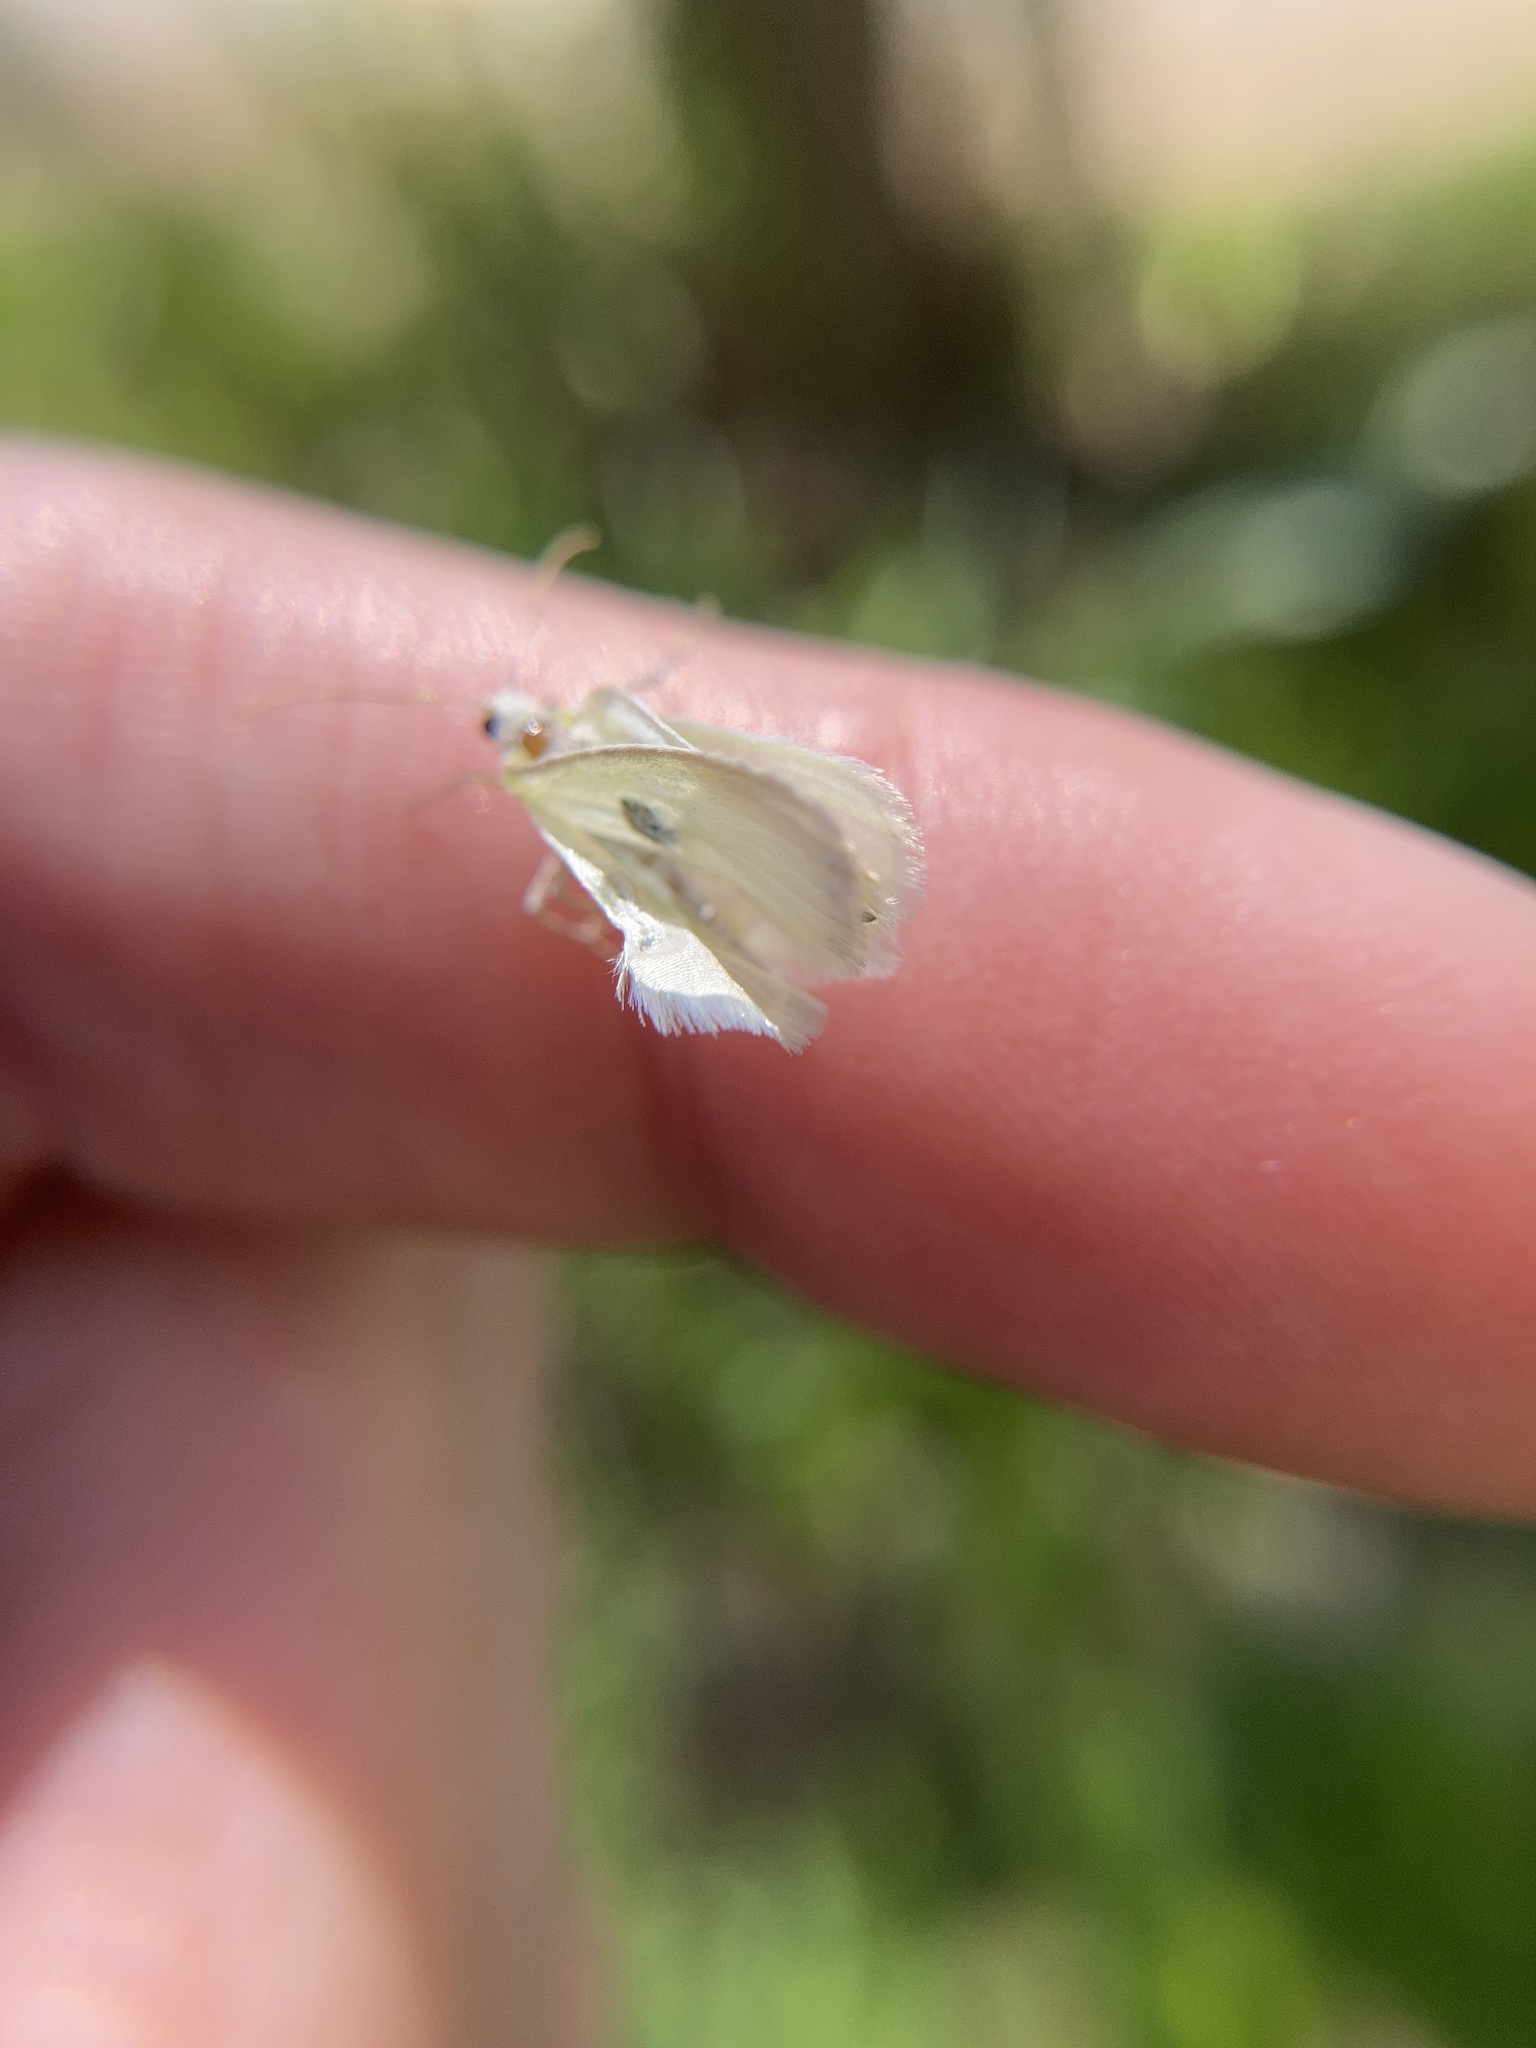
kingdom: Animalia
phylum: Arthropoda
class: Insecta
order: Lepidoptera
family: Geometridae
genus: Lomographa
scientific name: Lomographa vestaliata
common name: White spring moth
